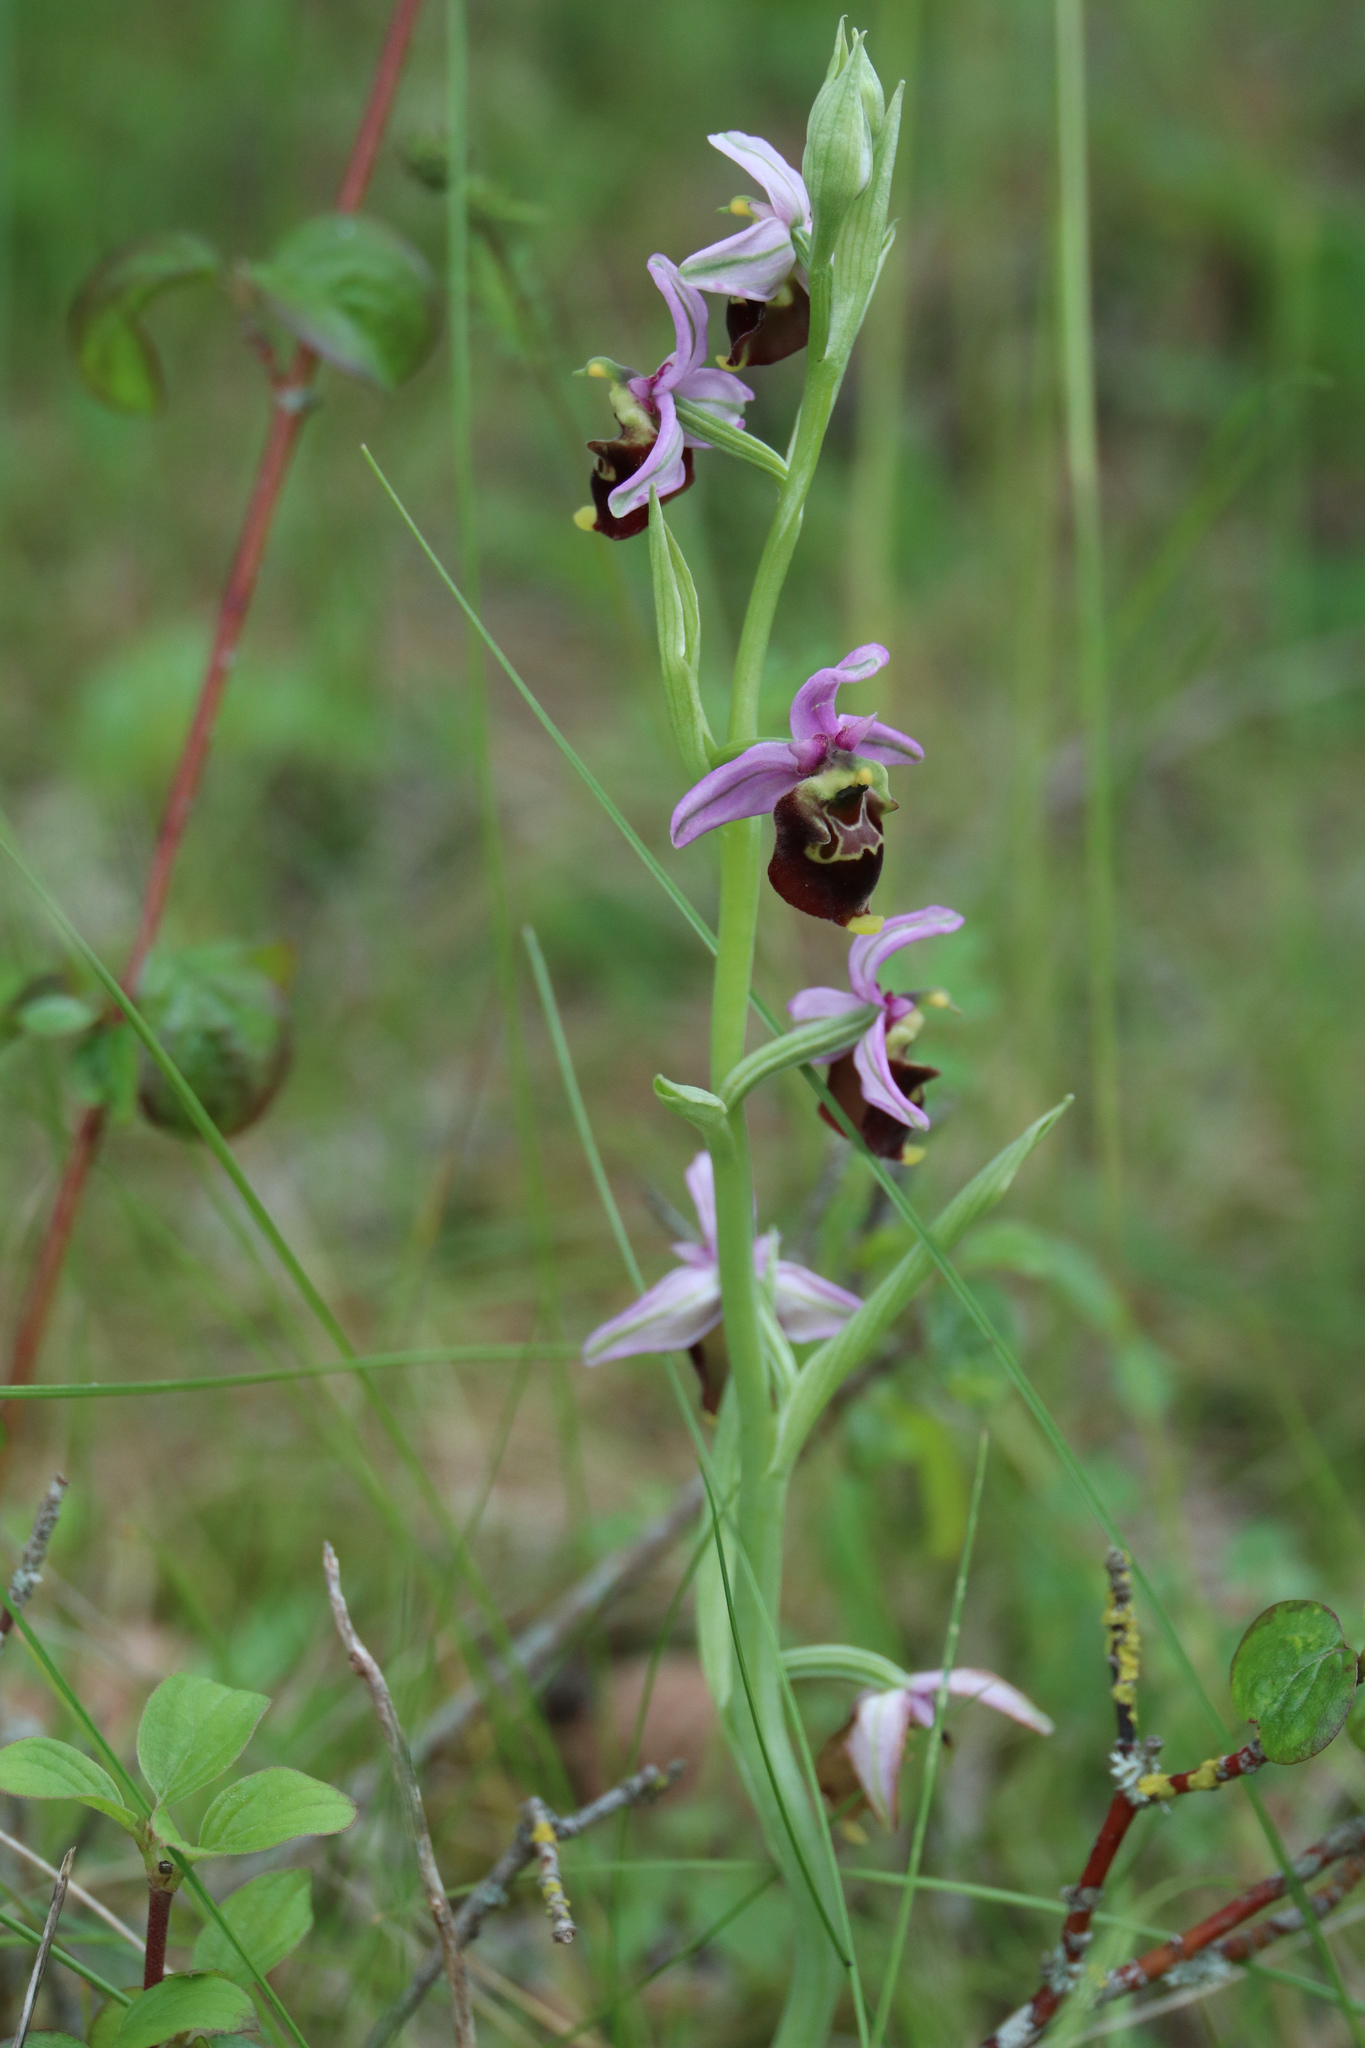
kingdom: Plantae
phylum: Tracheophyta
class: Liliopsida
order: Asparagales
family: Orchidaceae
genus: Ophrys
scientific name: Ophrys holosericea
